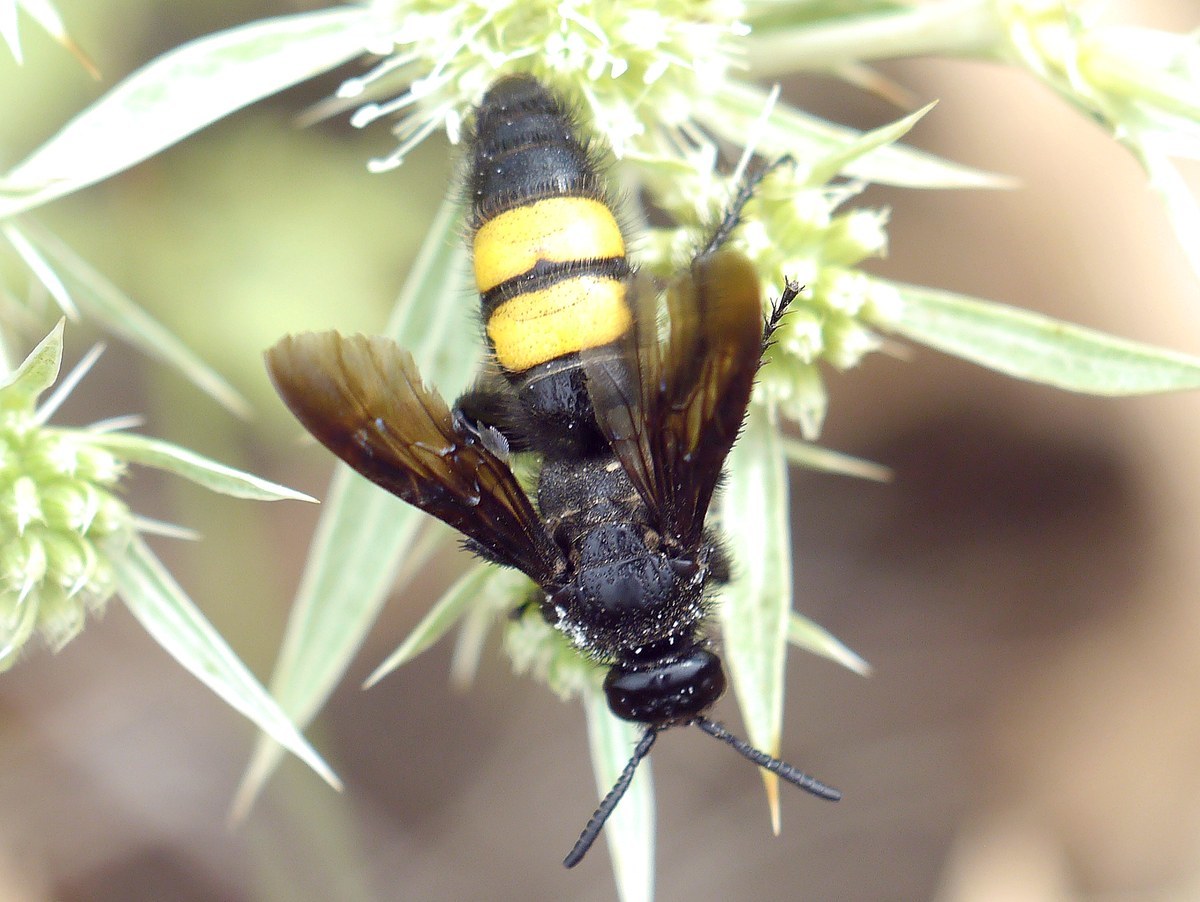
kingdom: Animalia
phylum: Arthropoda
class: Insecta
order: Hymenoptera
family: Scoliidae
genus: Scolia
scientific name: Scolia hirta
